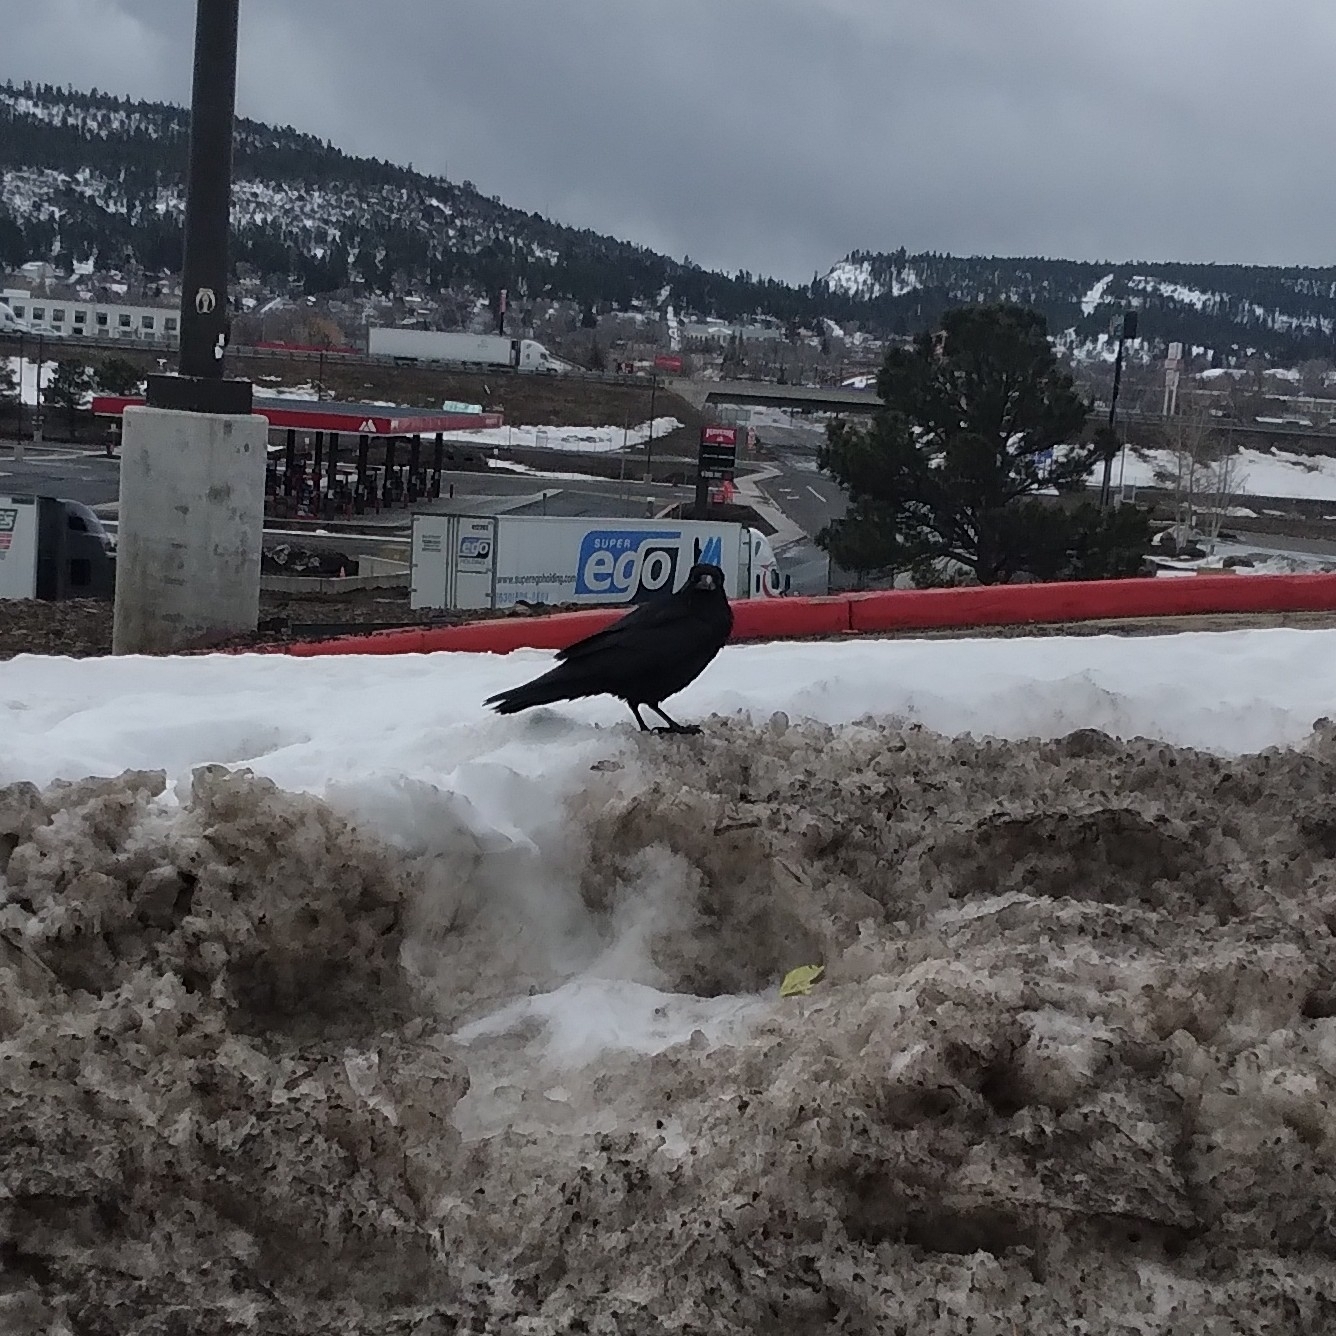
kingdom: Animalia
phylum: Chordata
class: Aves
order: Passeriformes
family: Corvidae
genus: Corvus
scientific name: Corvus corax
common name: Common raven
